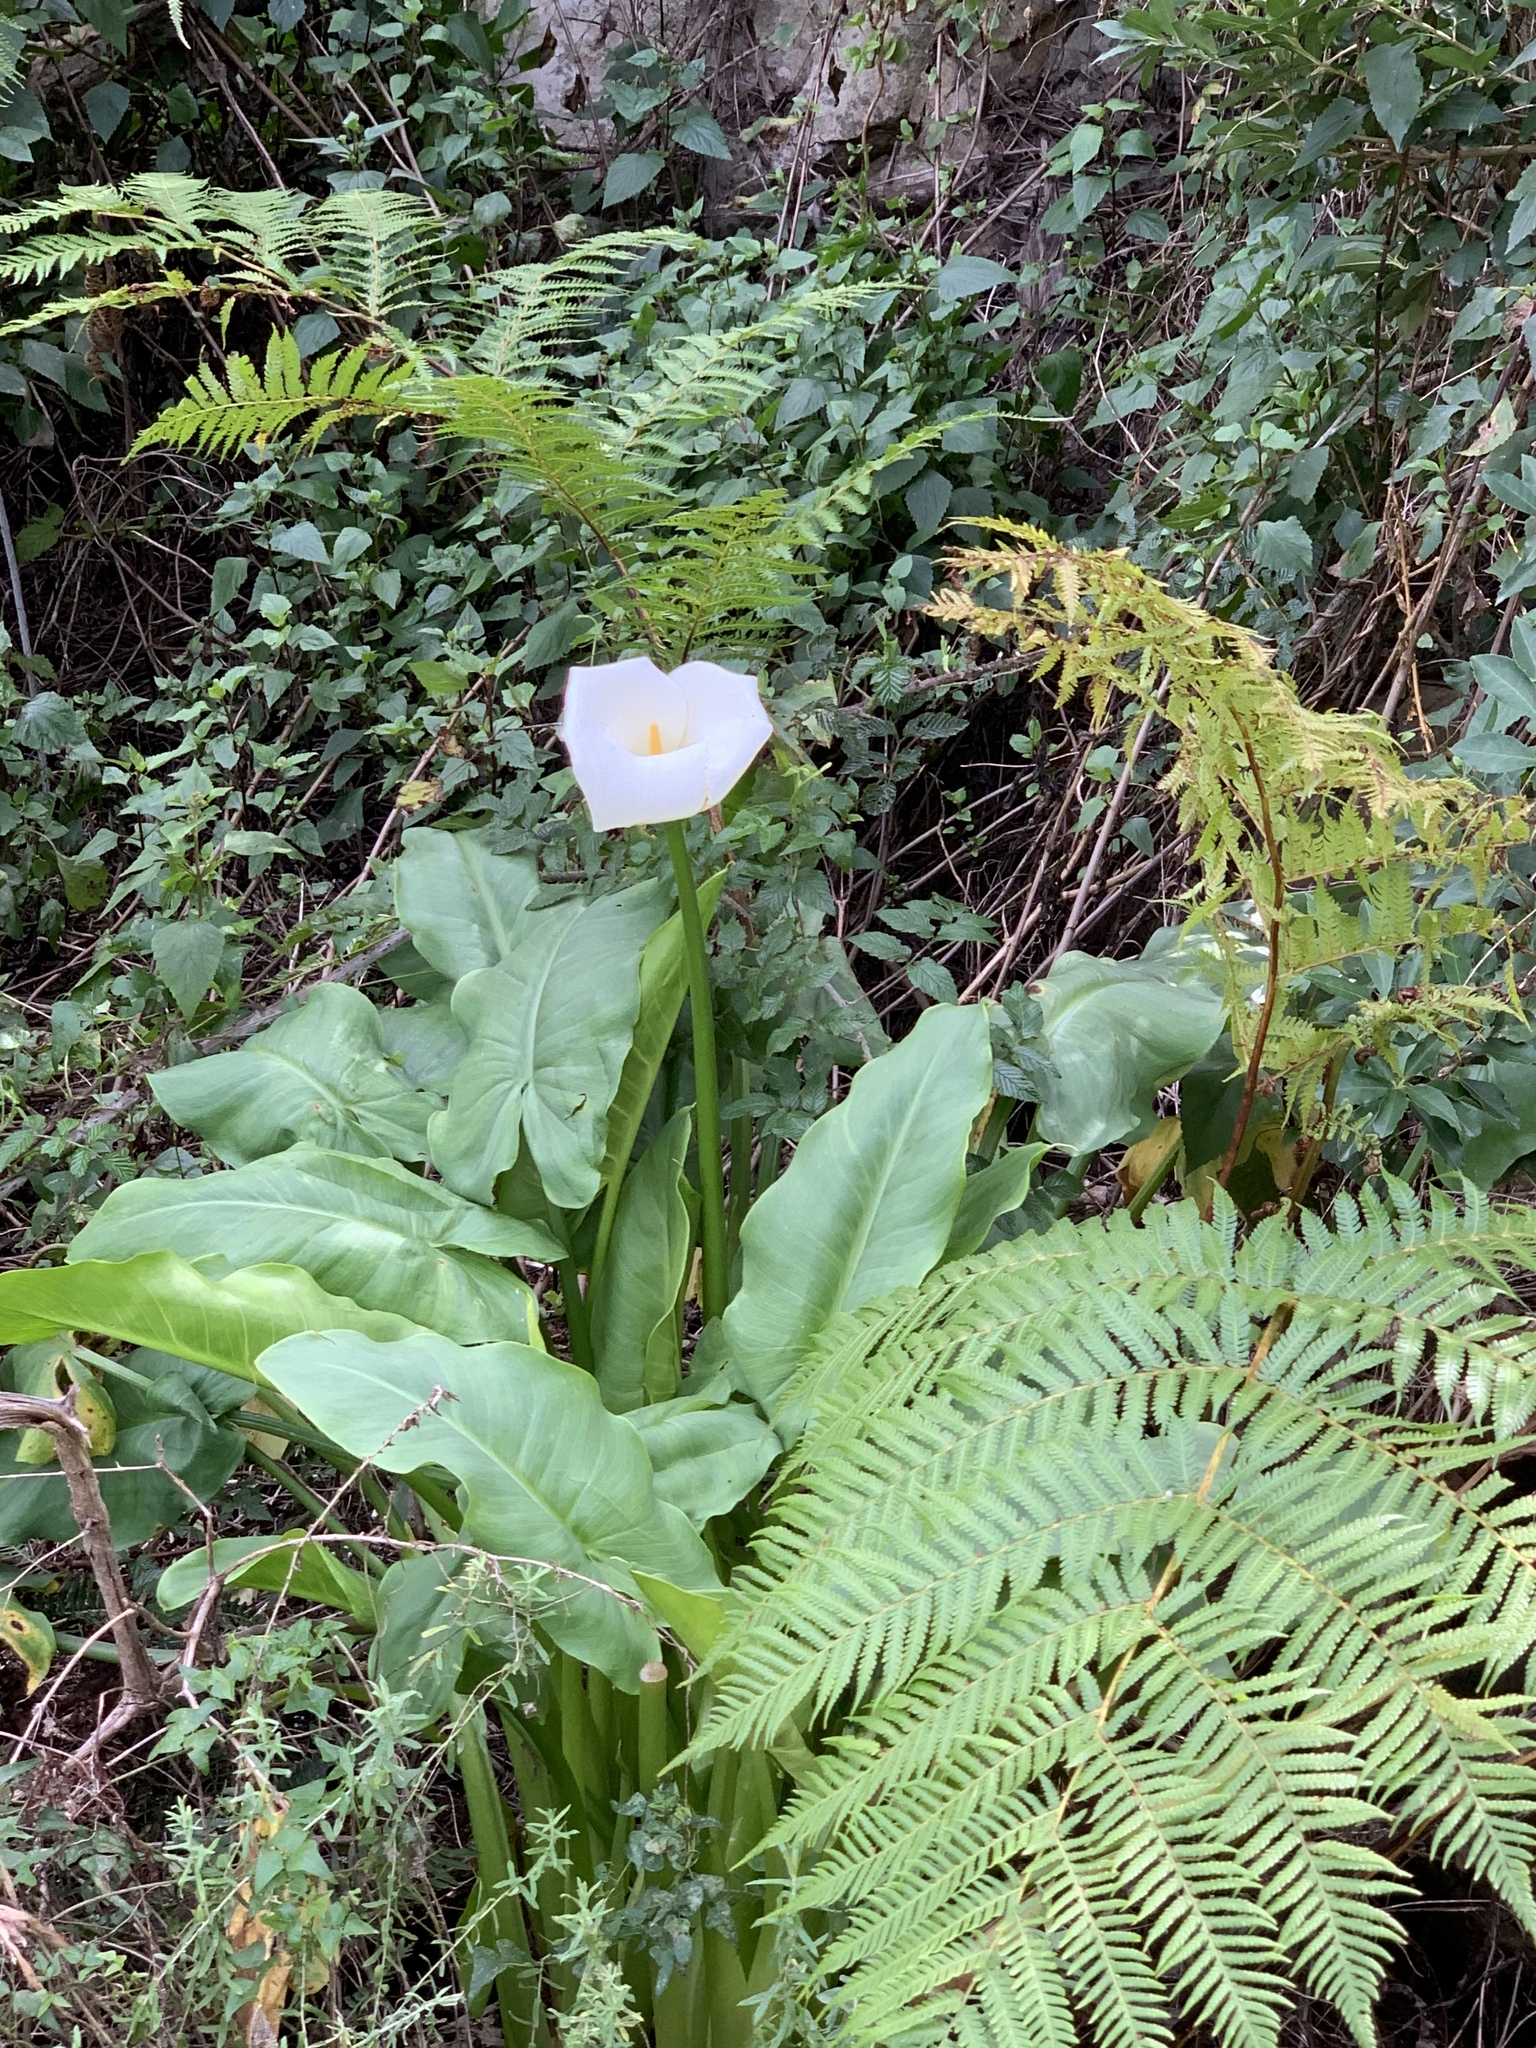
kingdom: Plantae
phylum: Tracheophyta
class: Liliopsida
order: Alismatales
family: Araceae
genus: Zantedeschia
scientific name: Zantedeschia aethiopica
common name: Altar-lily
